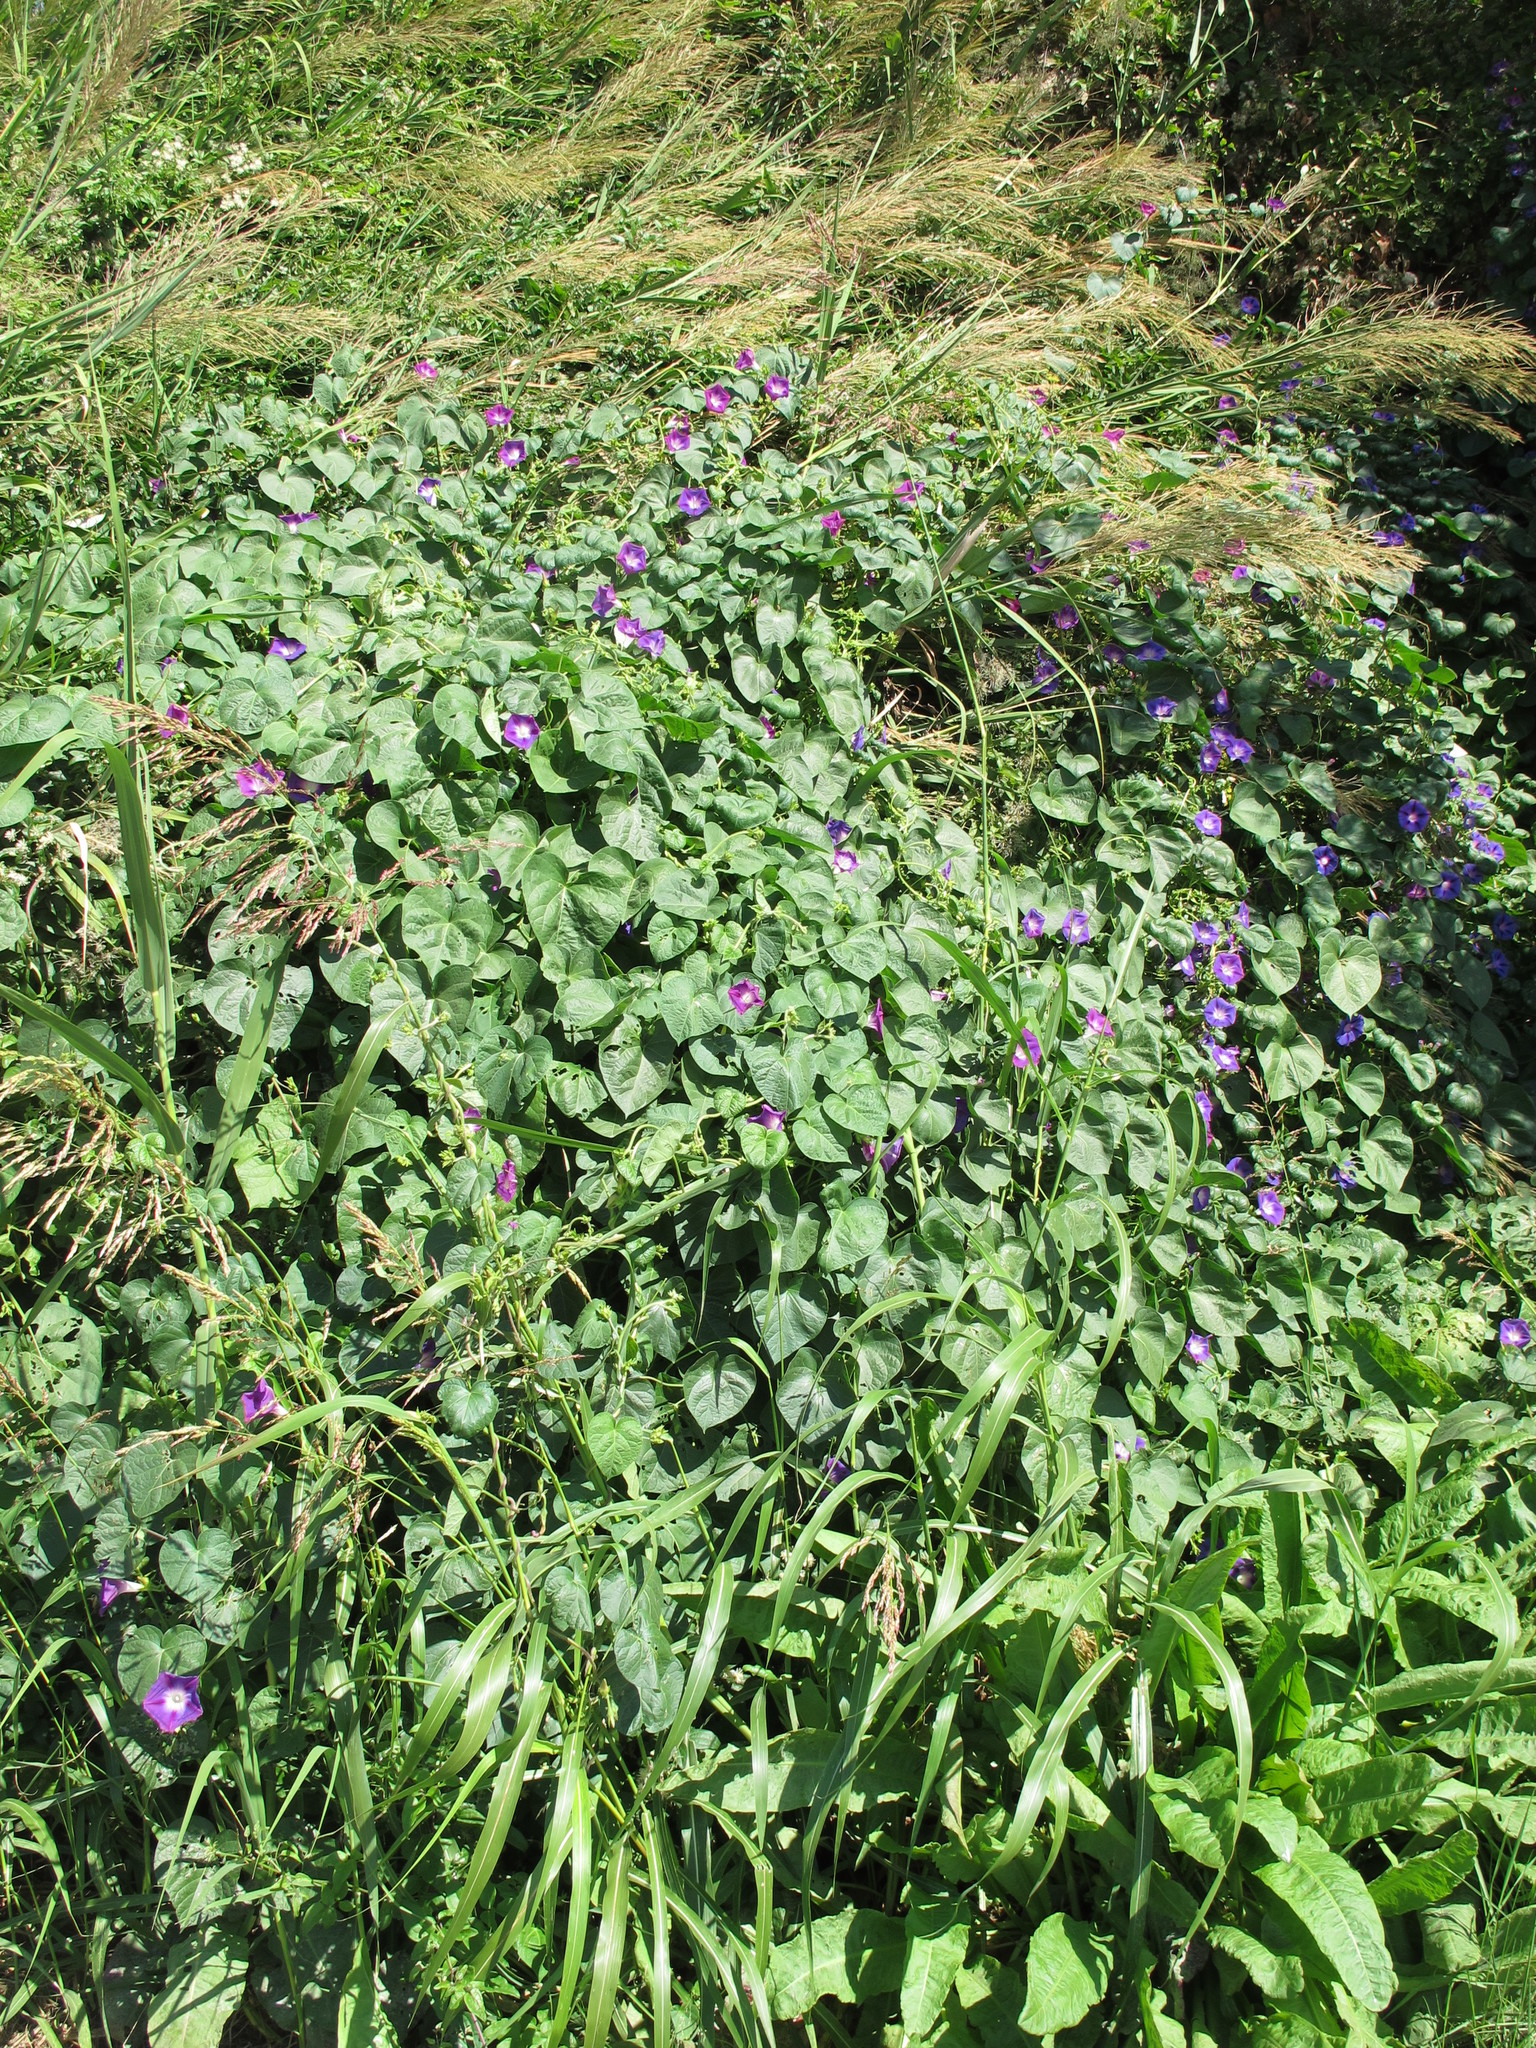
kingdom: Plantae
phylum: Tracheophyta
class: Magnoliopsida
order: Solanales
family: Convolvulaceae
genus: Ipomoea
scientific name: Ipomoea purpurea
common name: Common morning-glory
